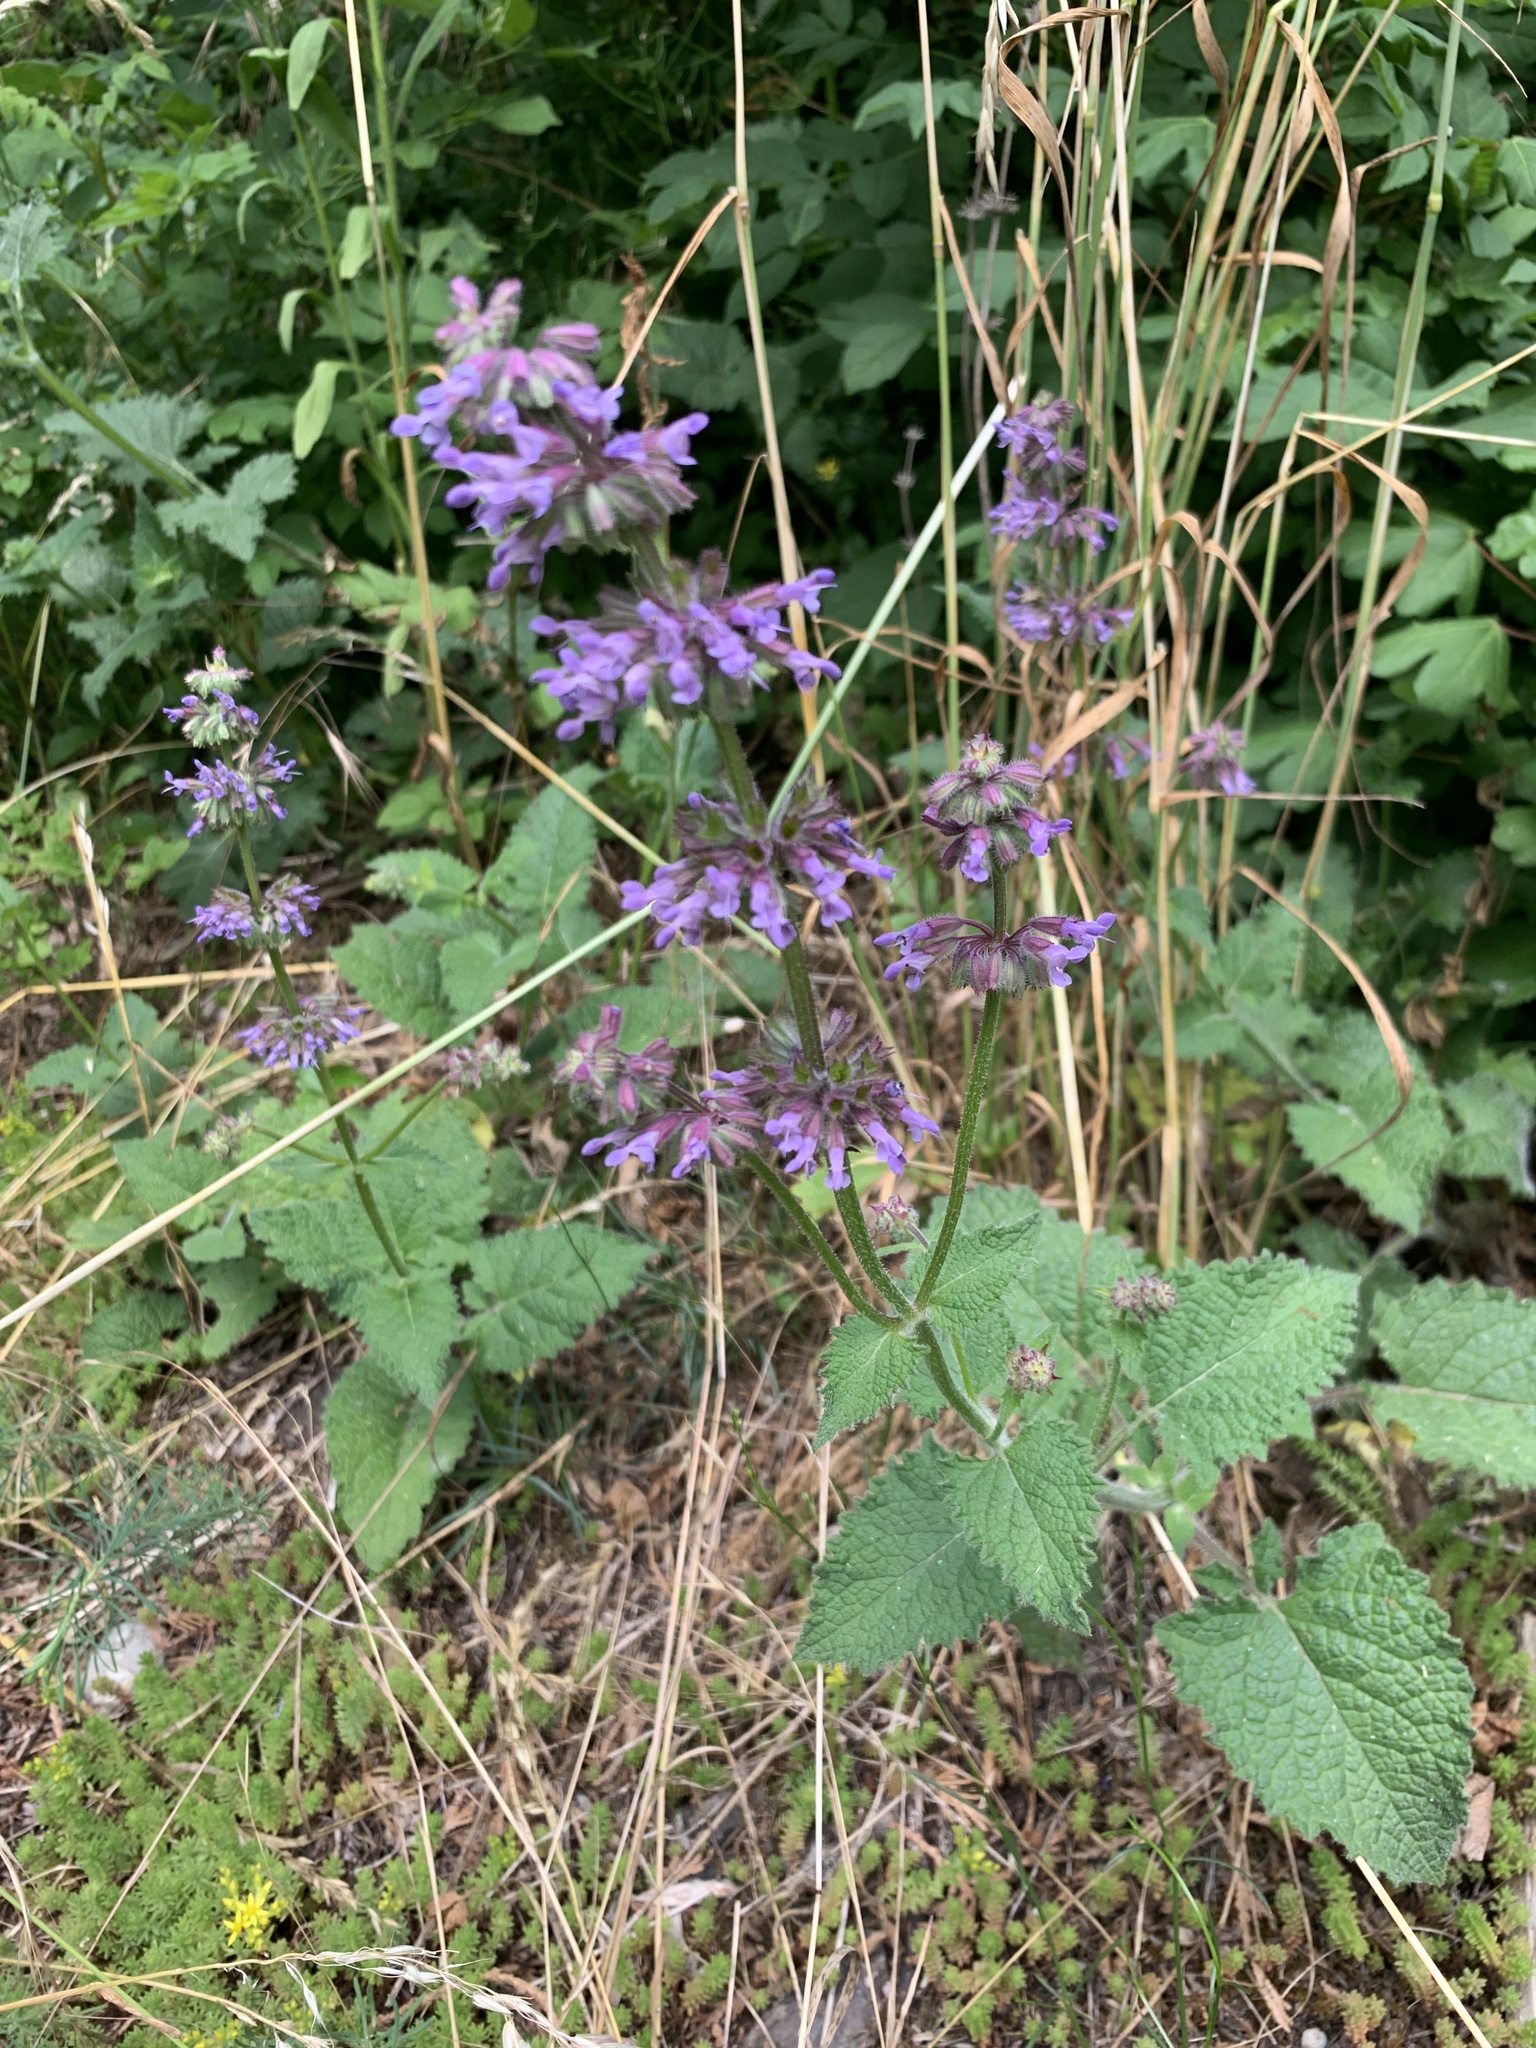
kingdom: Plantae
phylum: Tracheophyta
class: Magnoliopsida
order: Lamiales
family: Lamiaceae
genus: Salvia
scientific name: Salvia verticillata
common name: Whorled clary
